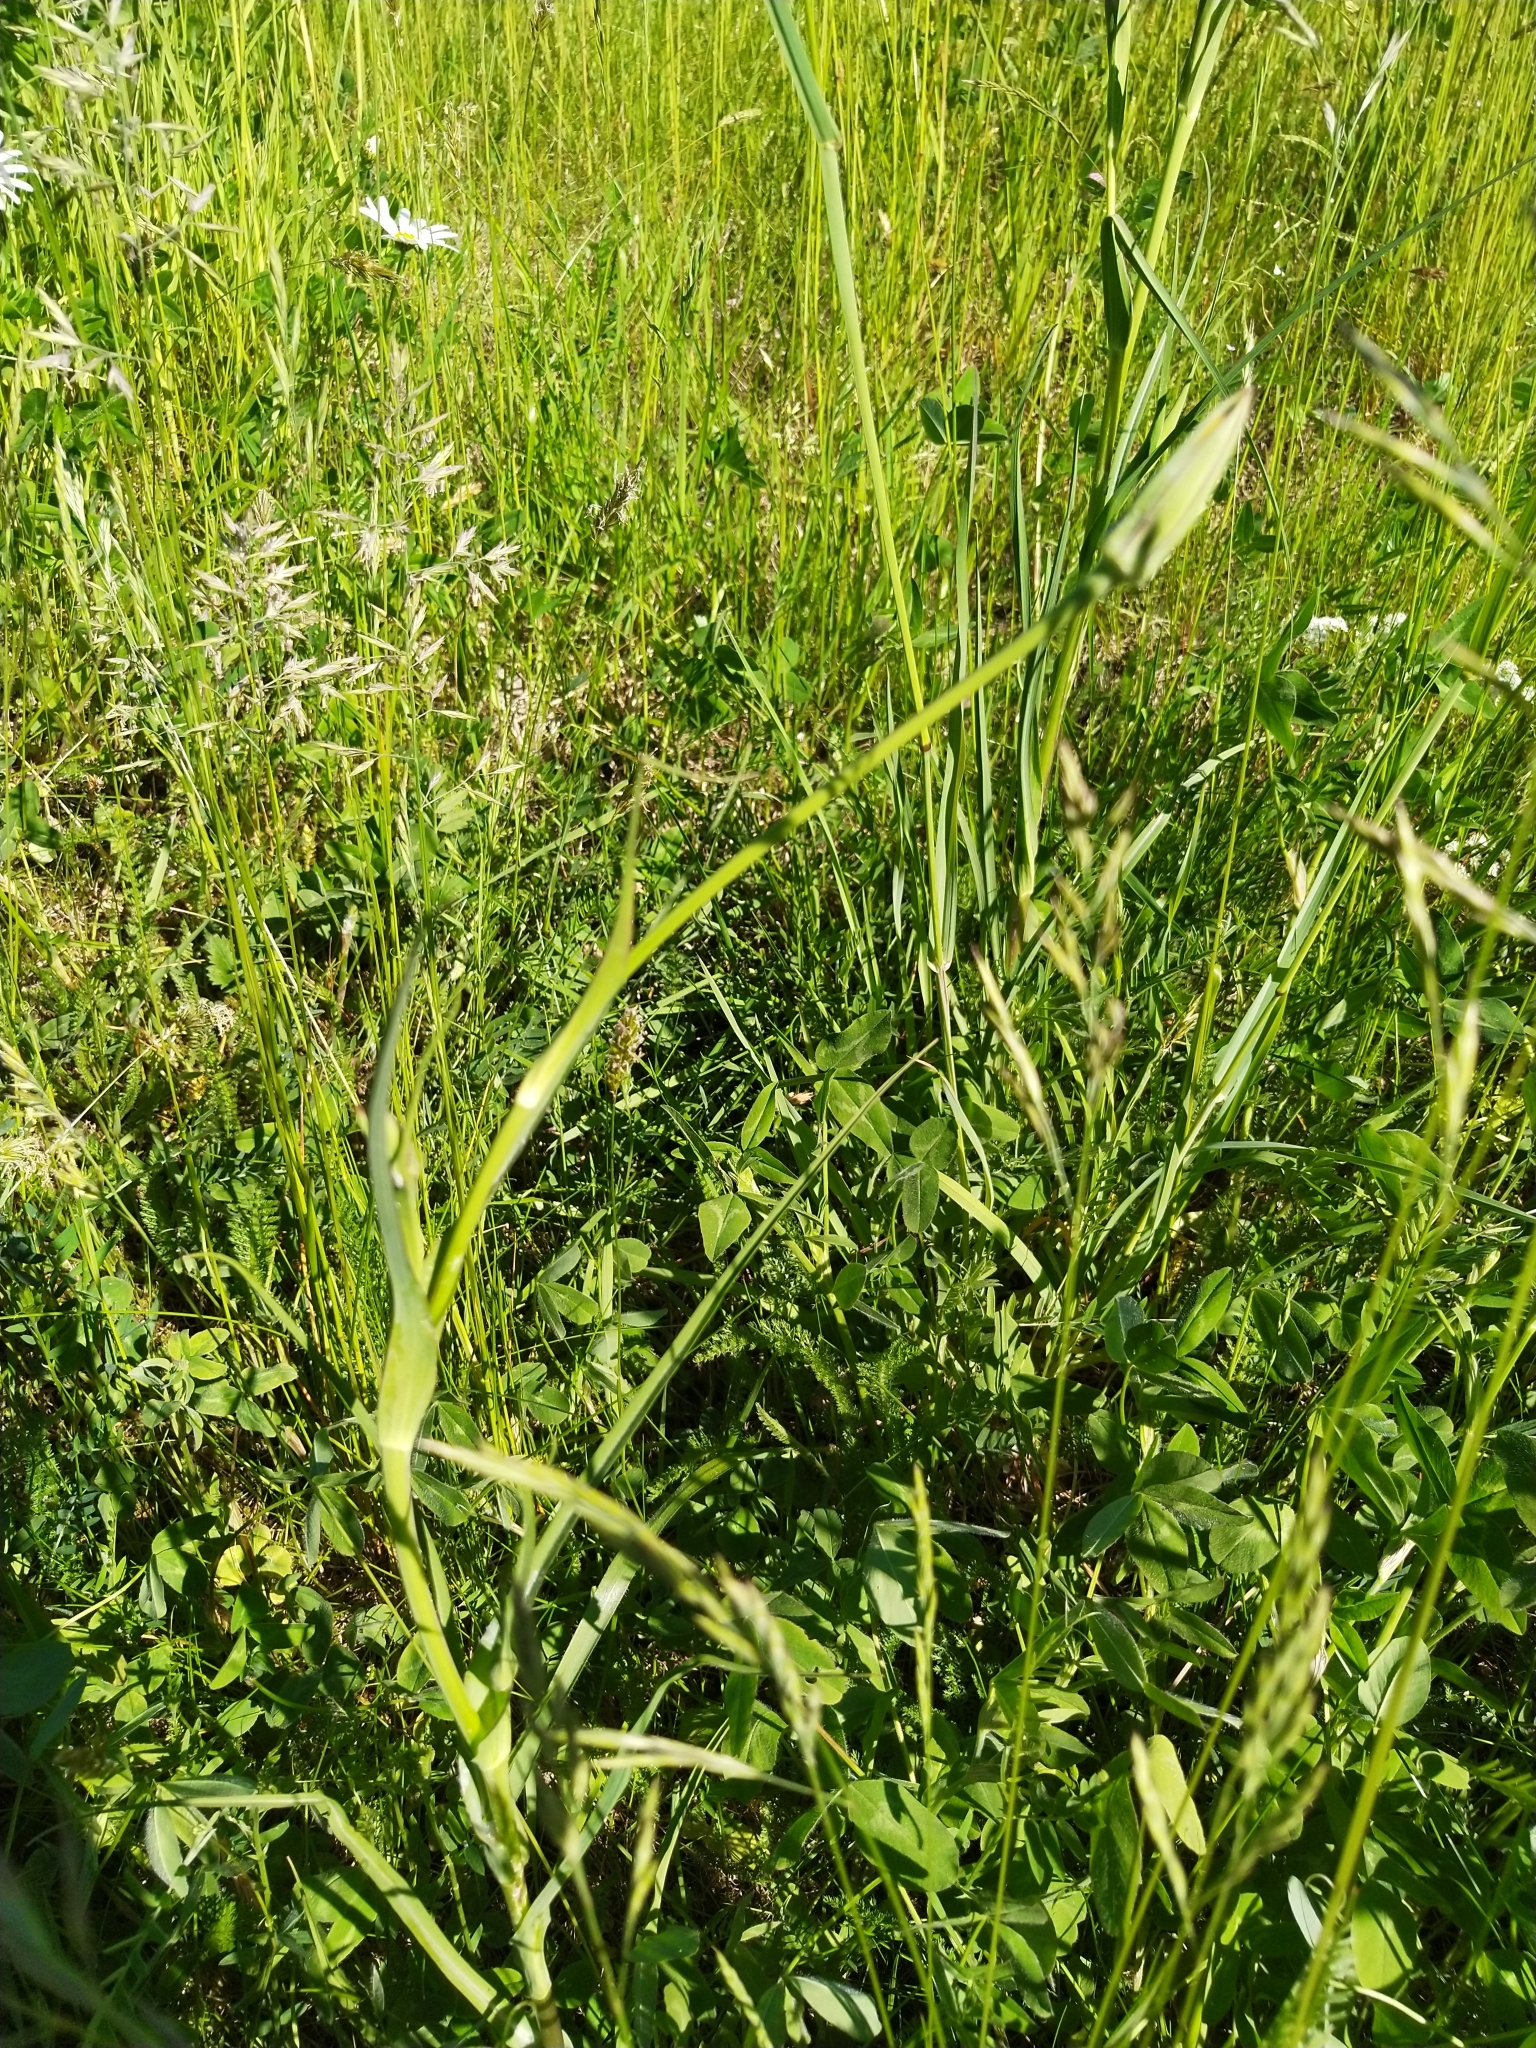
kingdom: Plantae
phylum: Tracheophyta
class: Magnoliopsida
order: Asterales
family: Asteraceae
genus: Tragopogon
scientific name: Tragopogon pratensis
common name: Goat's-beard
